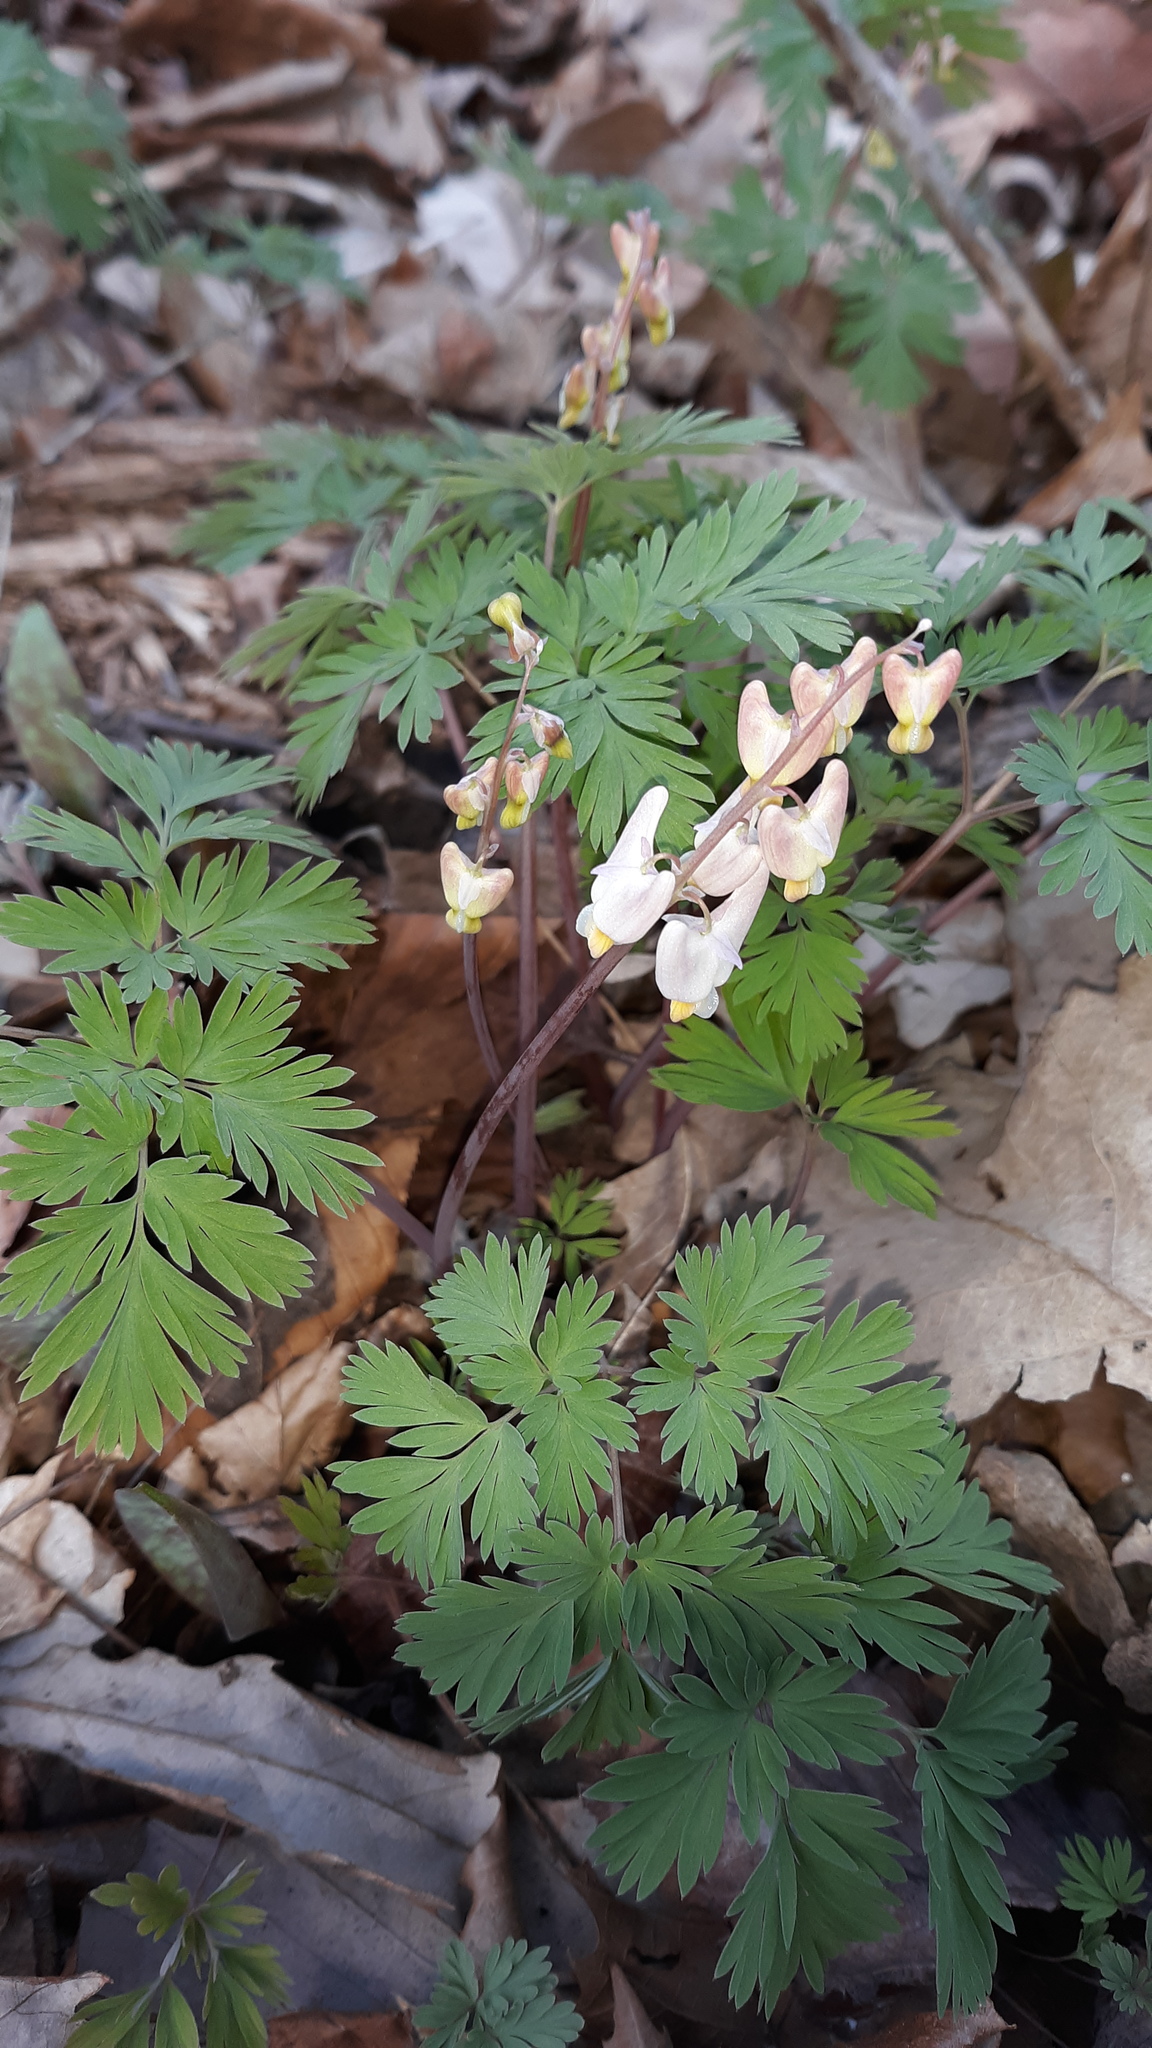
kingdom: Plantae
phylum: Tracheophyta
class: Magnoliopsida
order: Ranunculales
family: Papaveraceae
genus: Dicentra
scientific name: Dicentra cucullaria
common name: Dutchman's breeches
